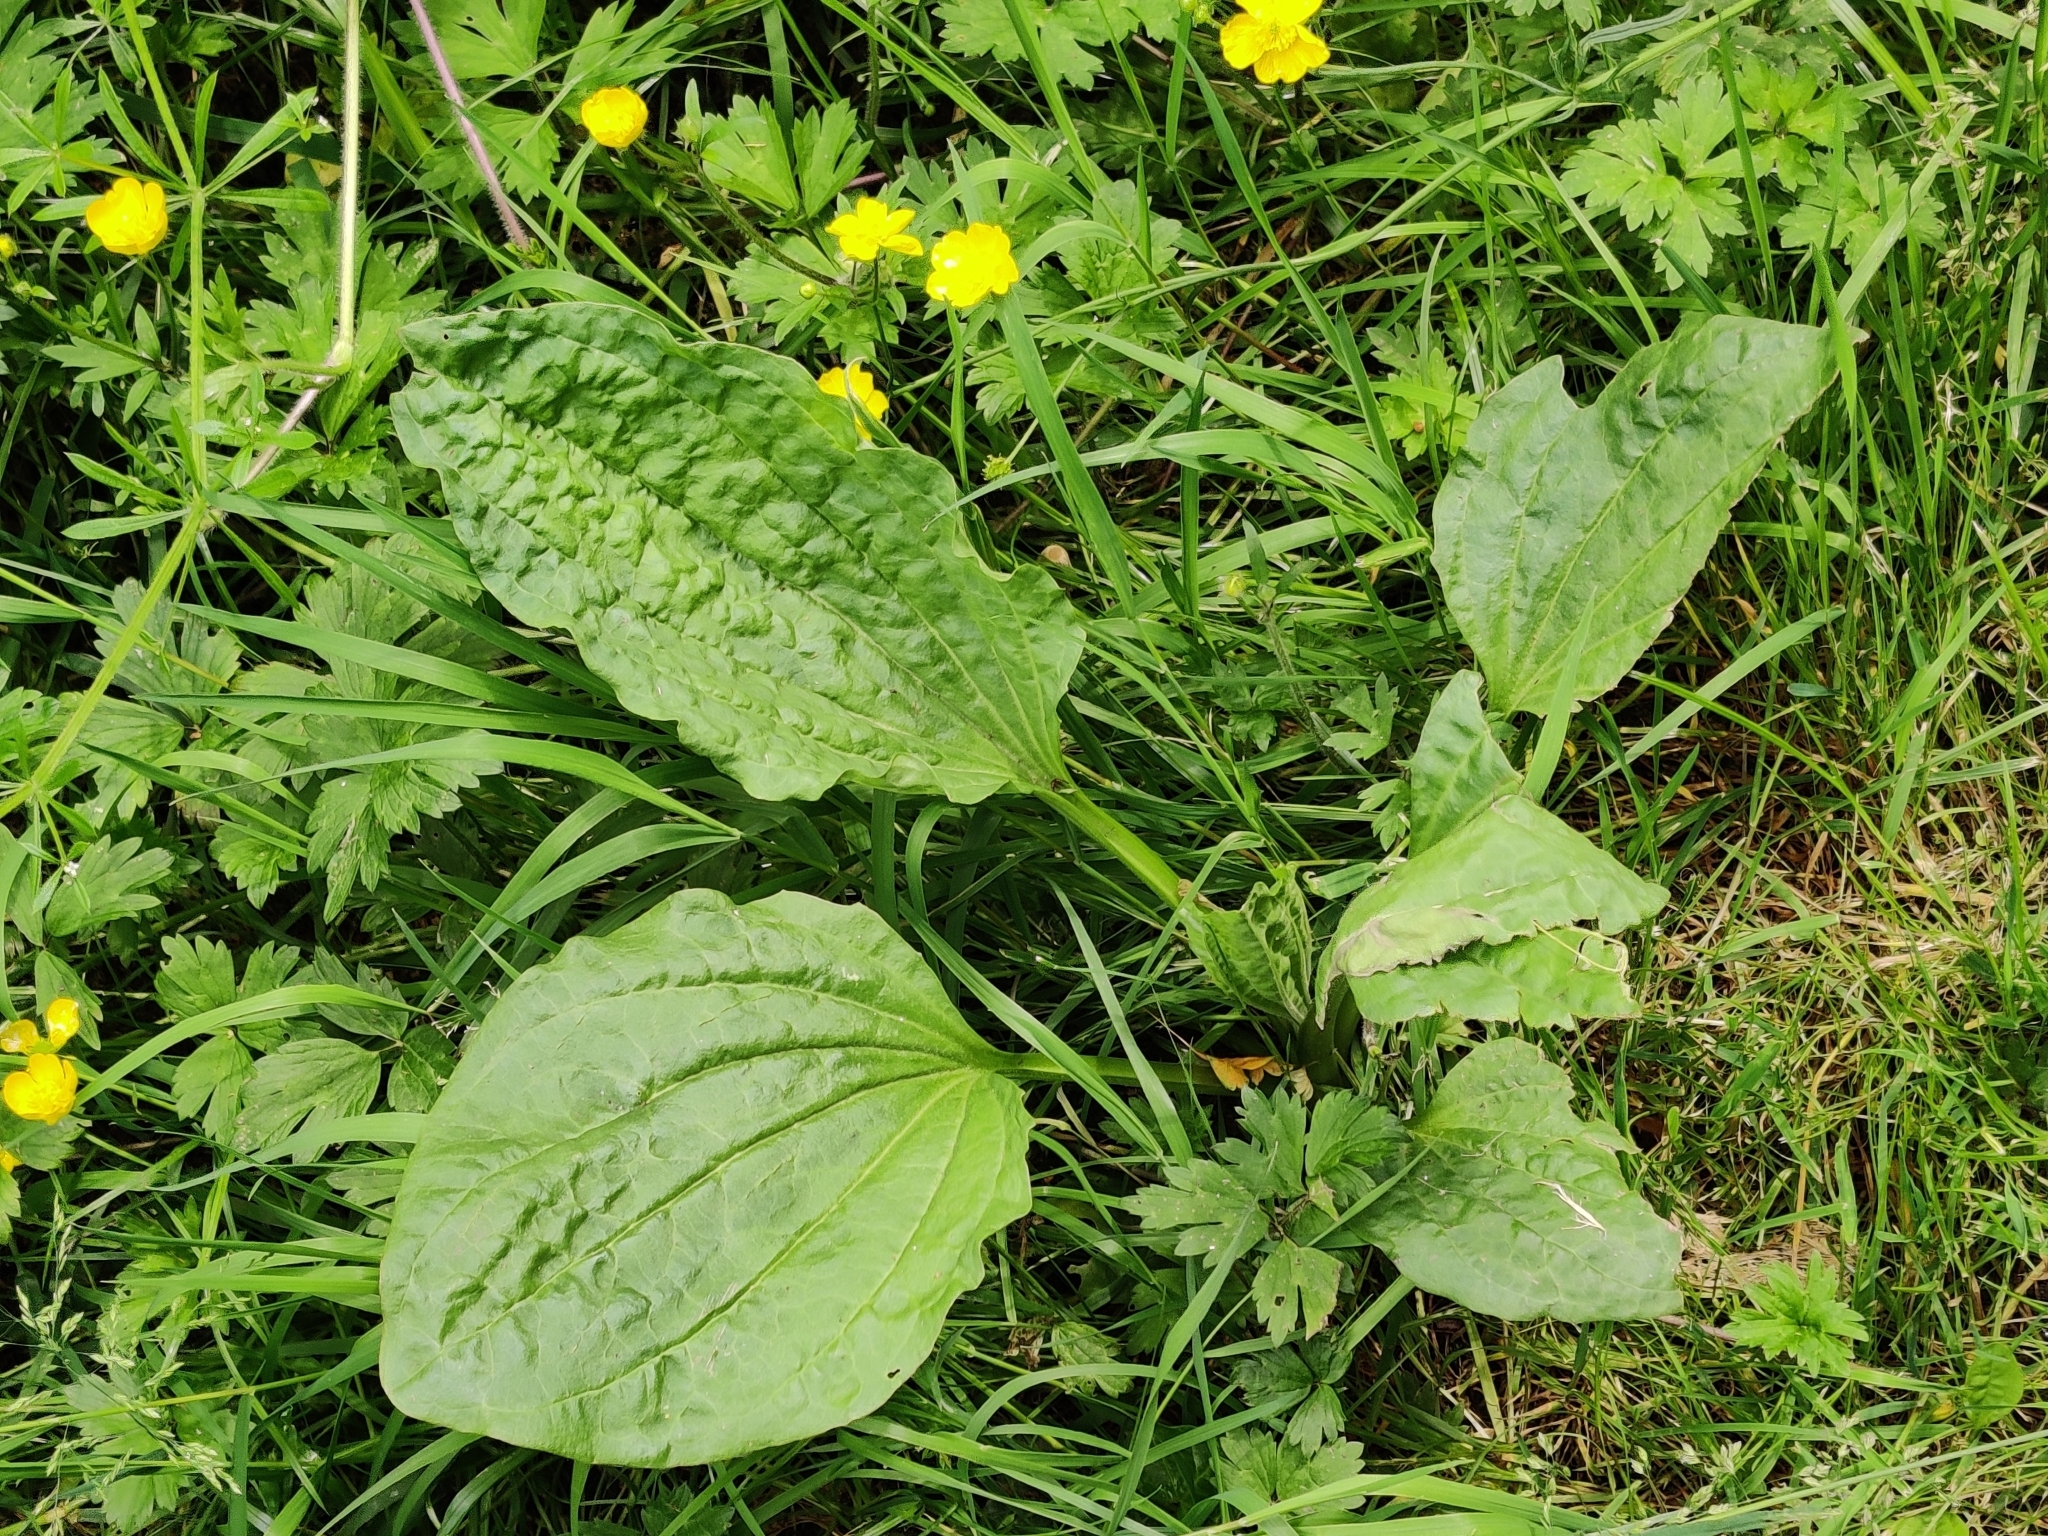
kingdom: Plantae
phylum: Tracheophyta
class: Magnoliopsida
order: Lamiales
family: Plantaginaceae
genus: Plantago
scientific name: Plantago major
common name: Common plantain
